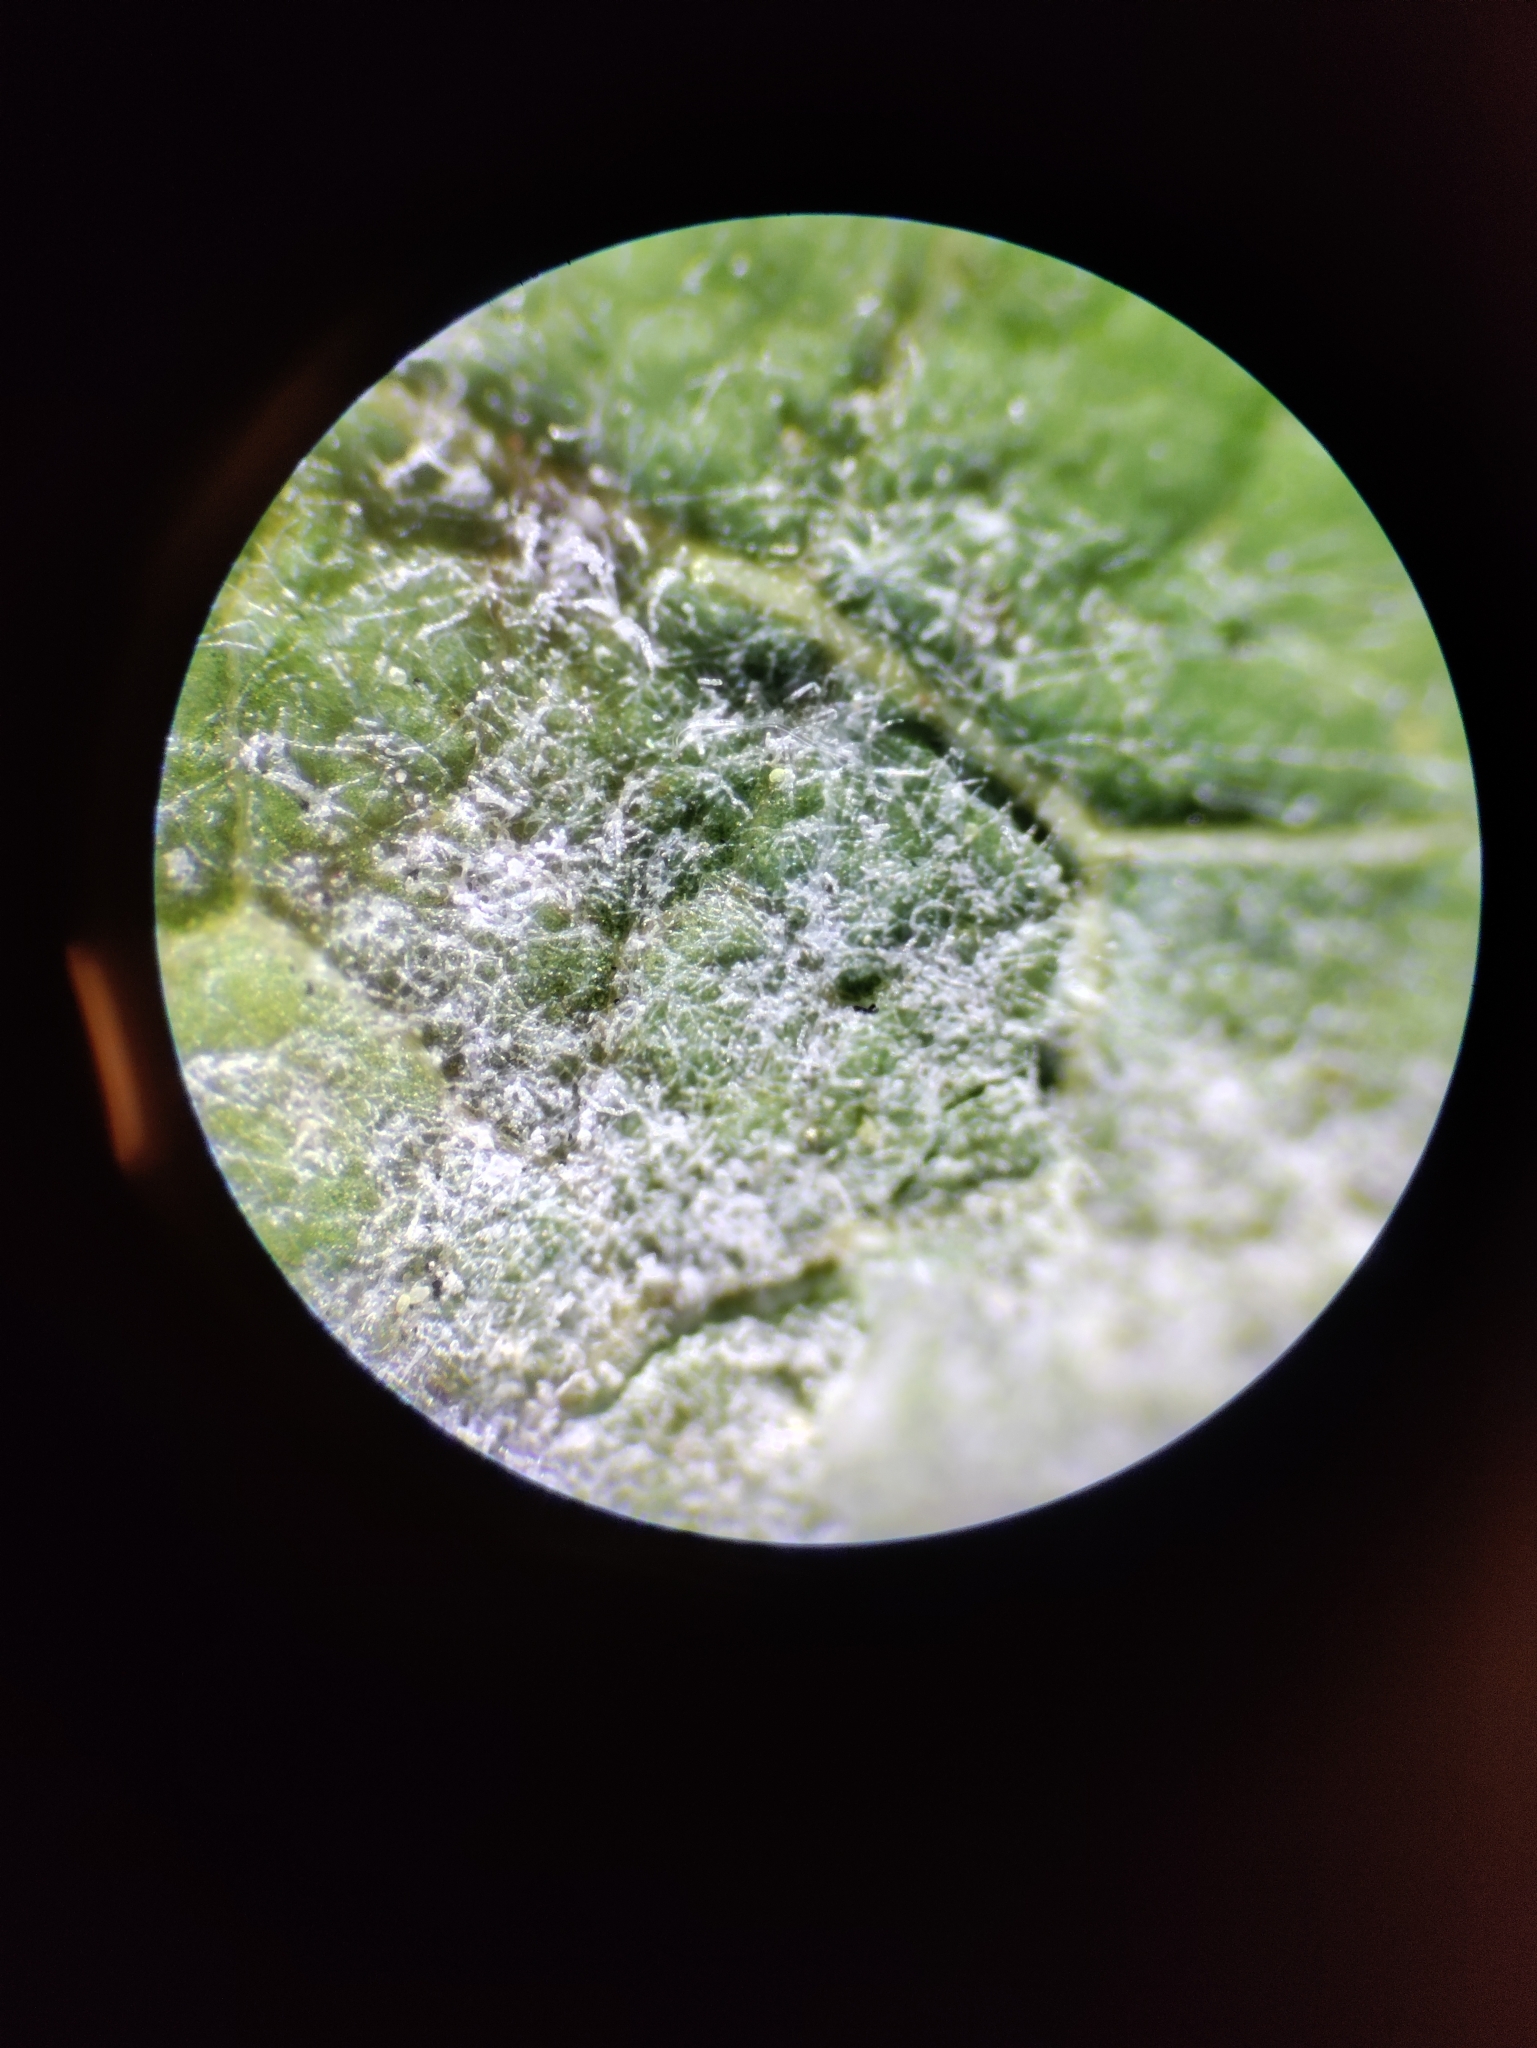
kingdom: Fungi
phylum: Ascomycota
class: Leotiomycetes
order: Helotiales
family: Erysiphaceae
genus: Podosphaera
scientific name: Podosphaera pannosa
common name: Rose mildew
